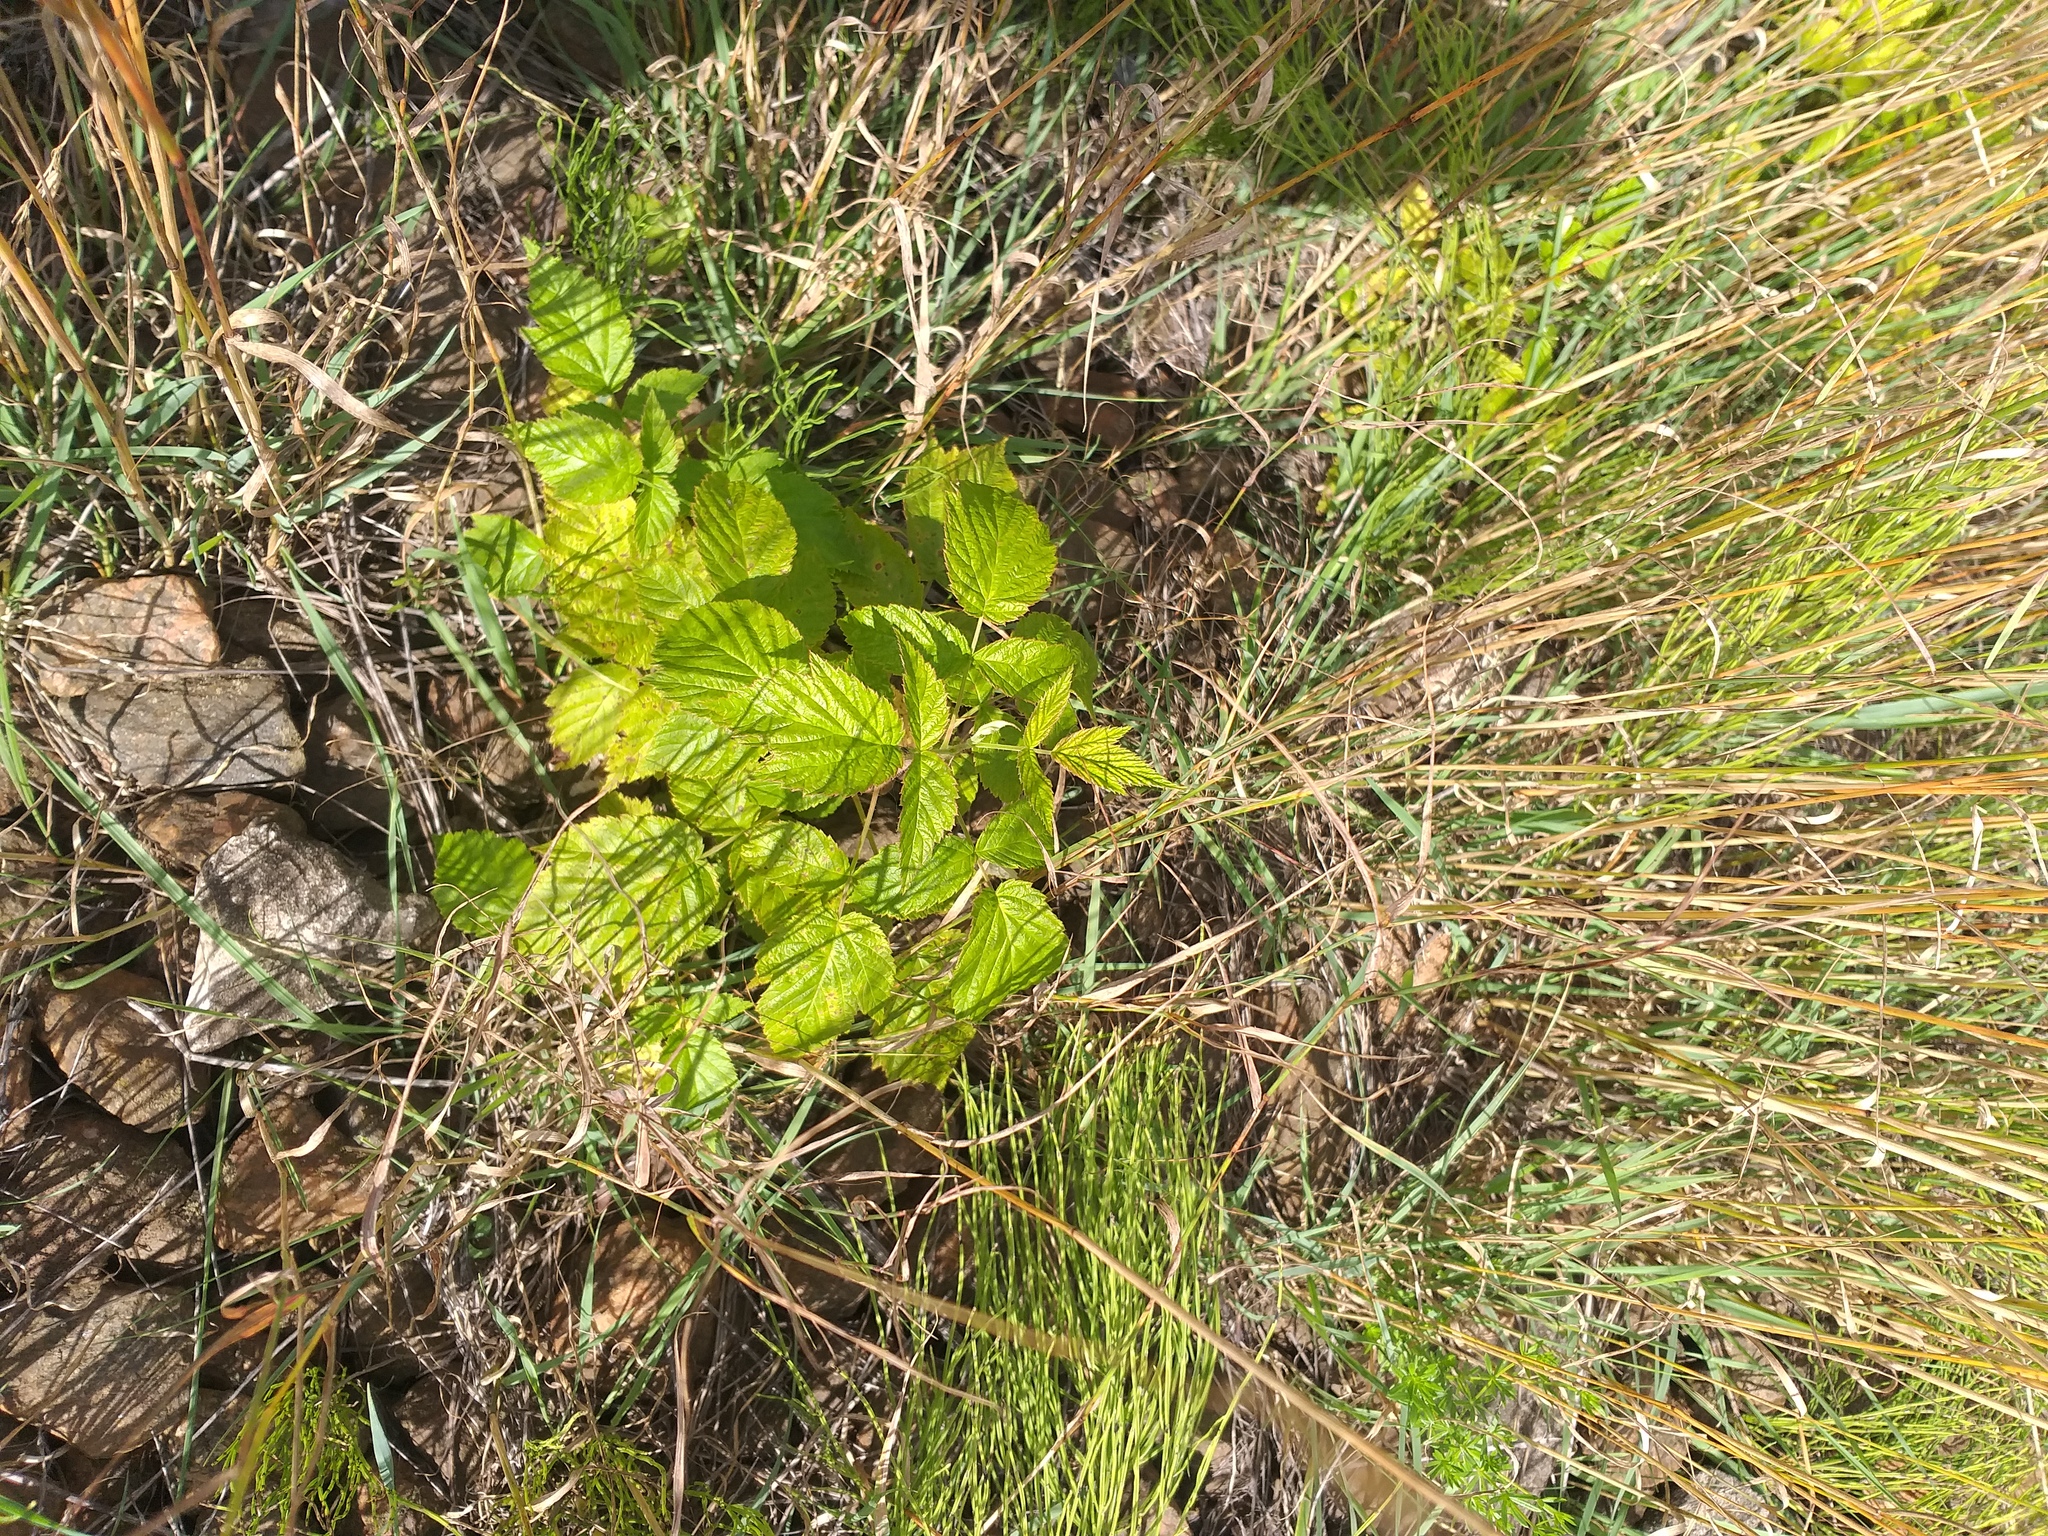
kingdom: Plantae
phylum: Tracheophyta
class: Magnoliopsida
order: Rosales
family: Rosaceae
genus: Rubus
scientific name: Rubus idaeus
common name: Raspberry
